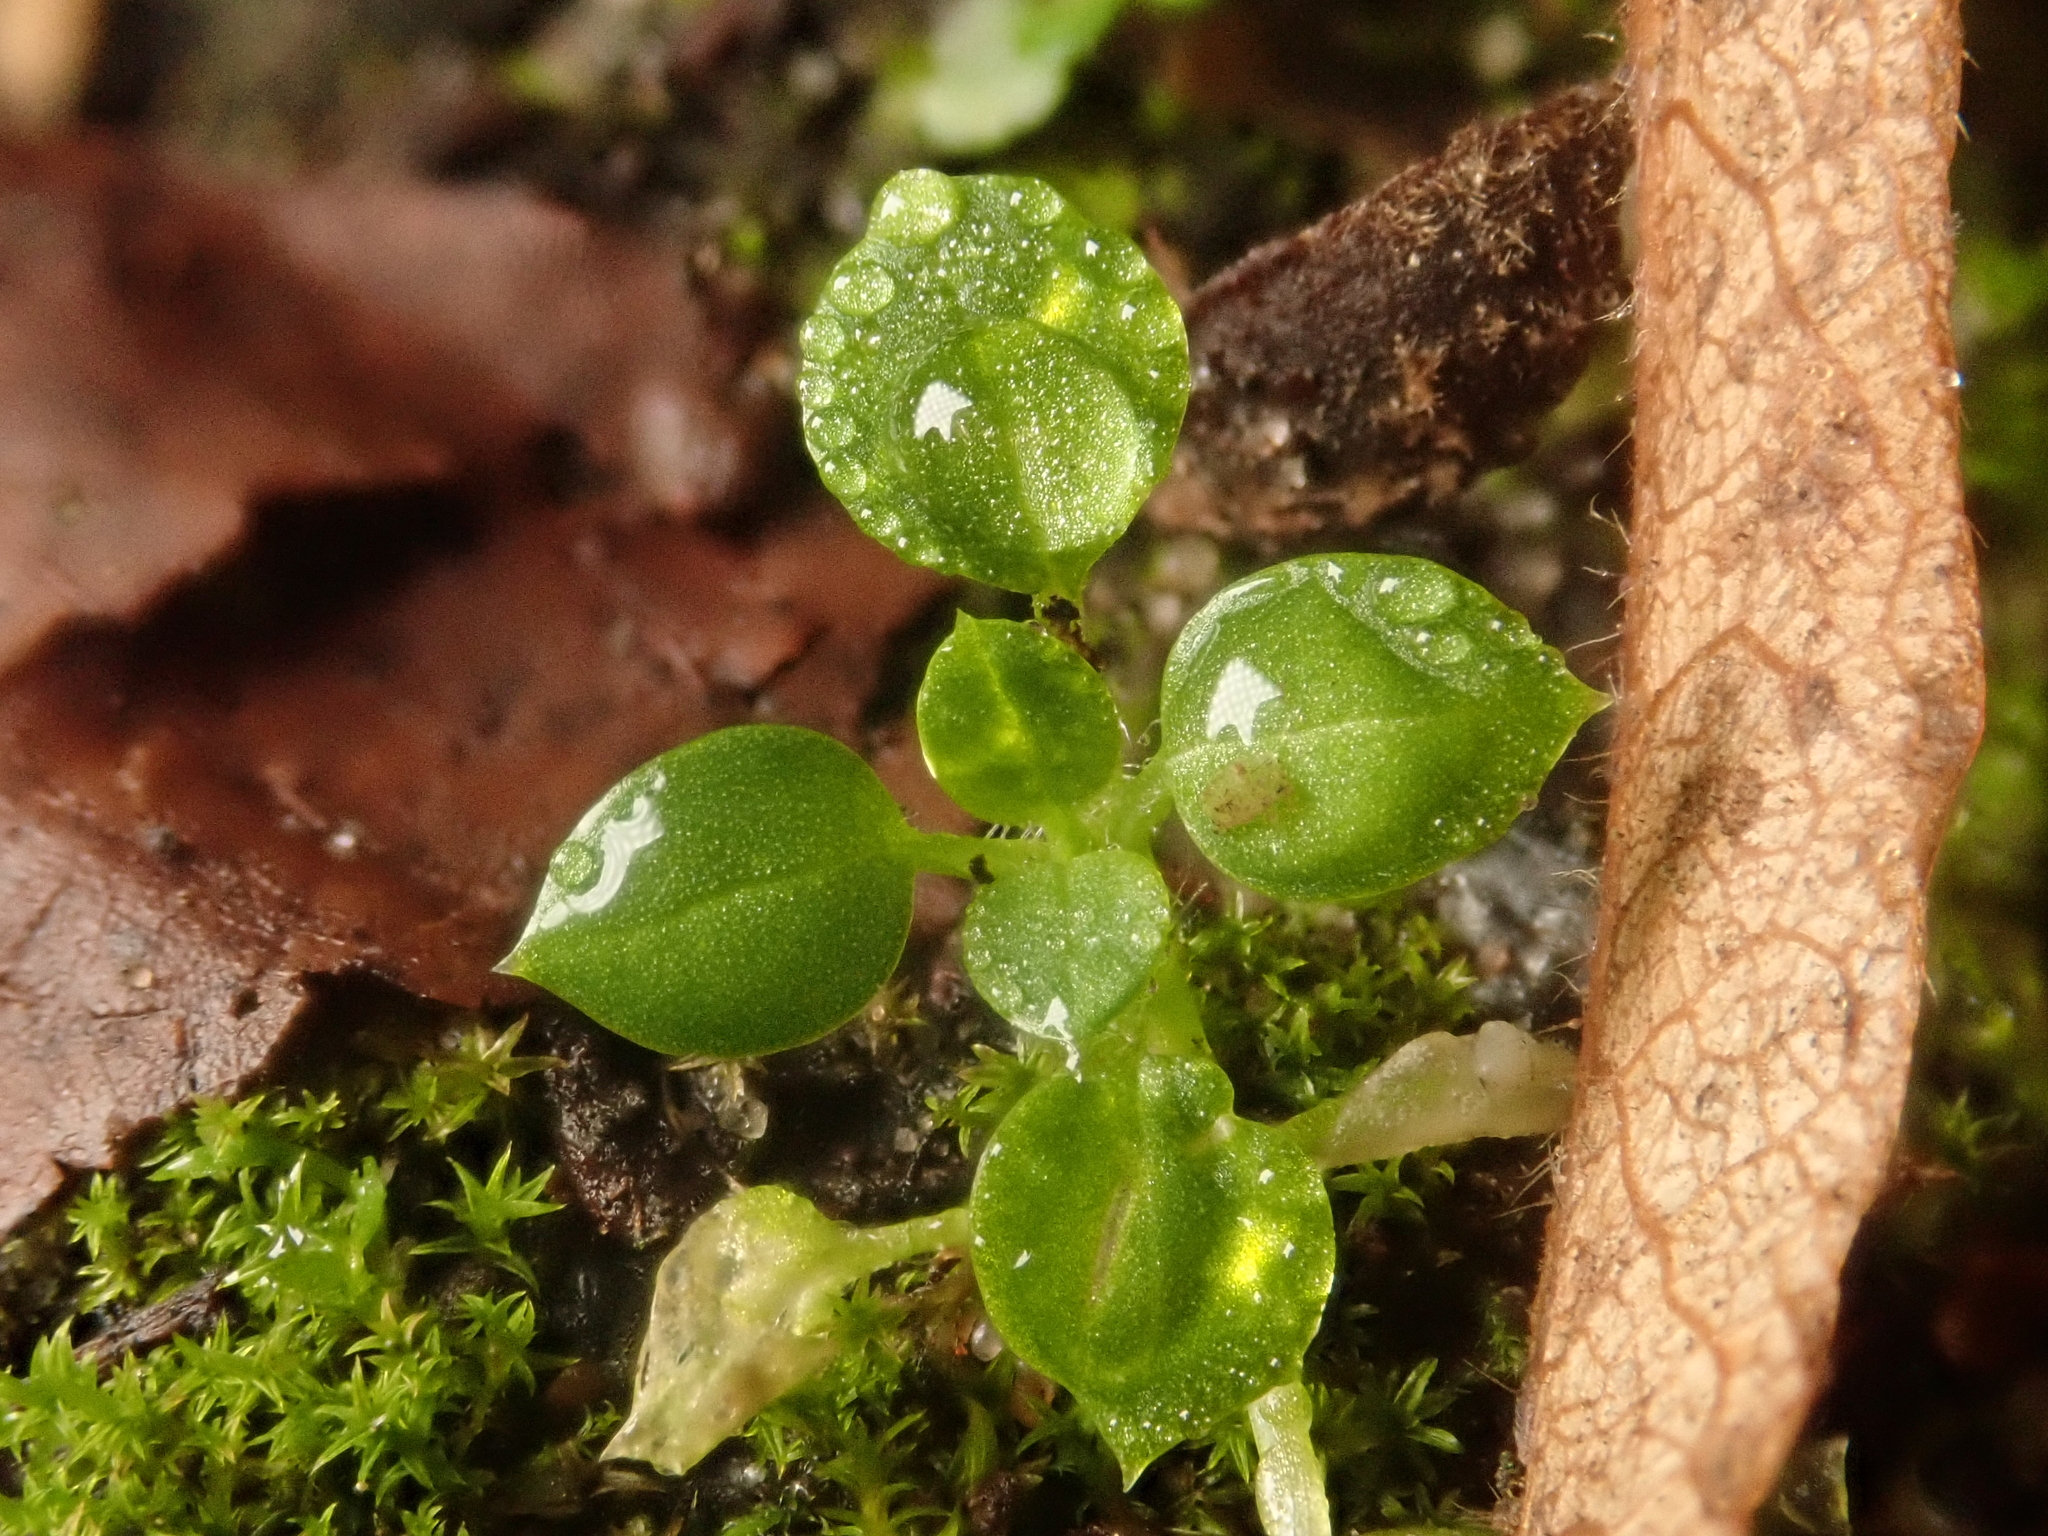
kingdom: Plantae
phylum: Tracheophyta
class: Magnoliopsida
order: Caryophyllales
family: Caryophyllaceae
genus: Stellaria
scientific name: Stellaria media
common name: Common chickweed
